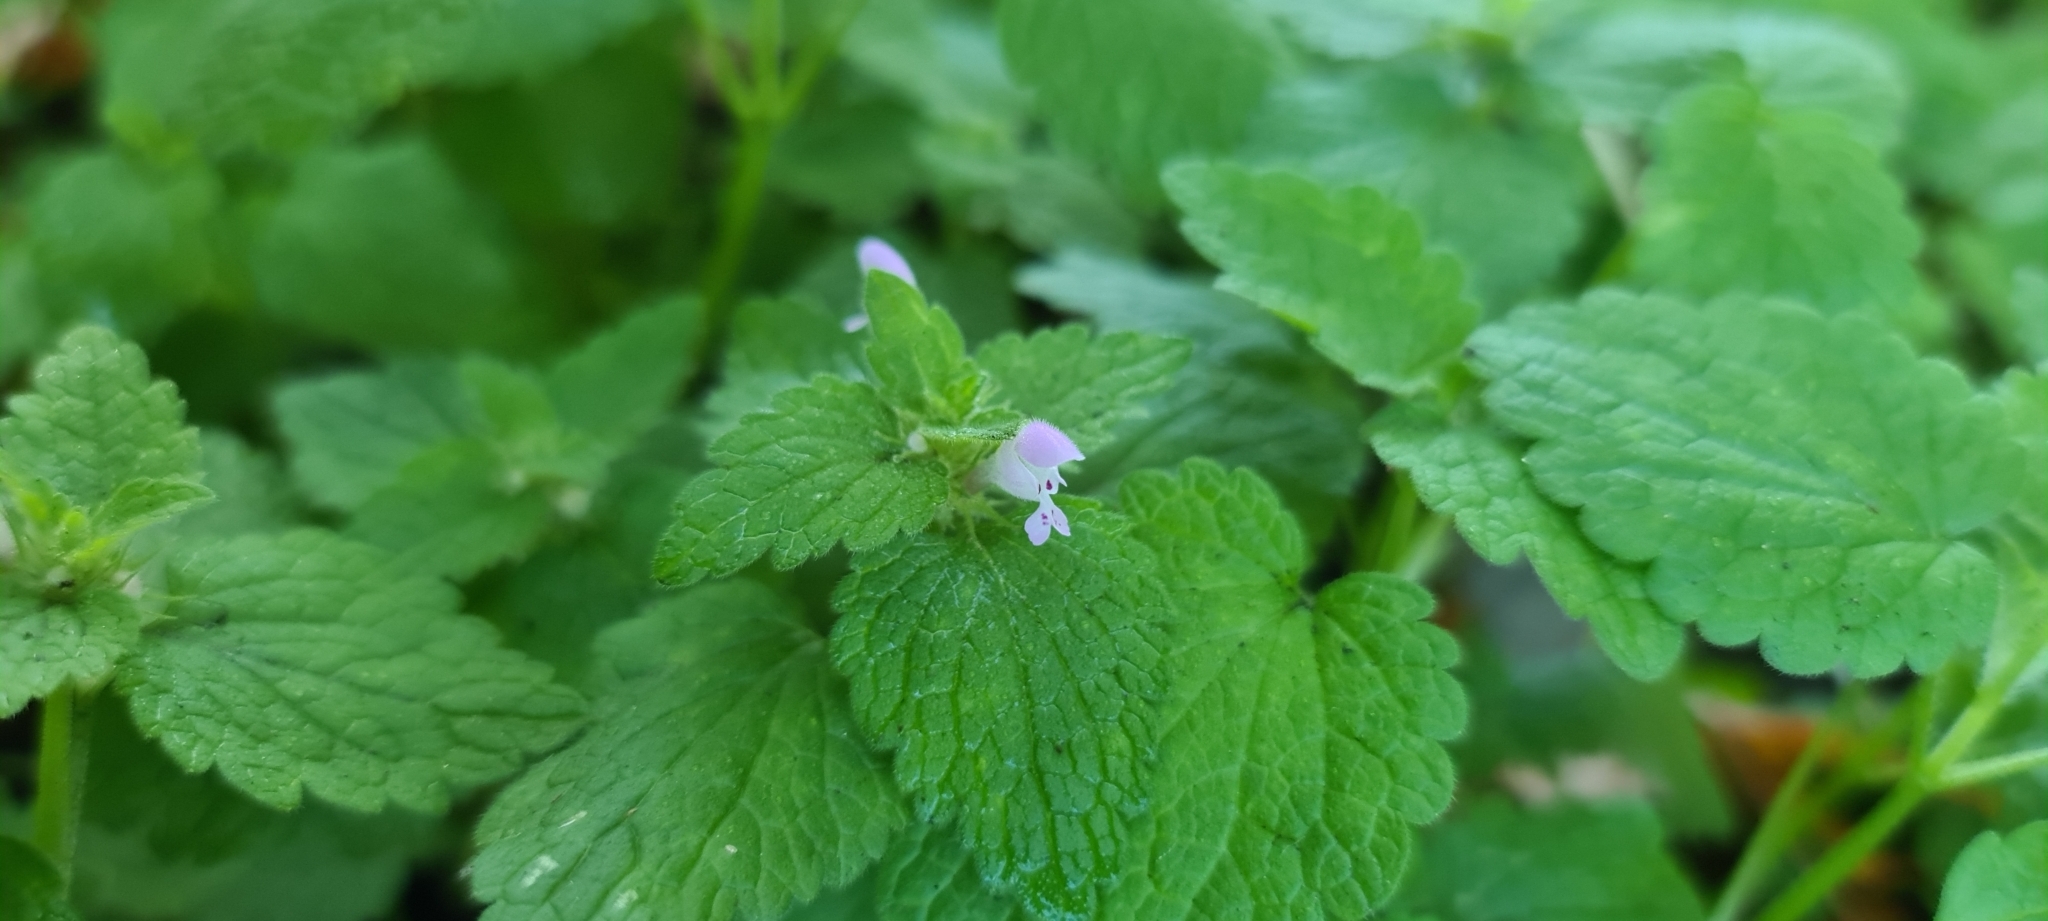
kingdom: Plantae
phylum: Tracheophyta
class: Magnoliopsida
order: Lamiales
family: Lamiaceae
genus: Lamium
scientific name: Lamium purpureum
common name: Red dead-nettle
